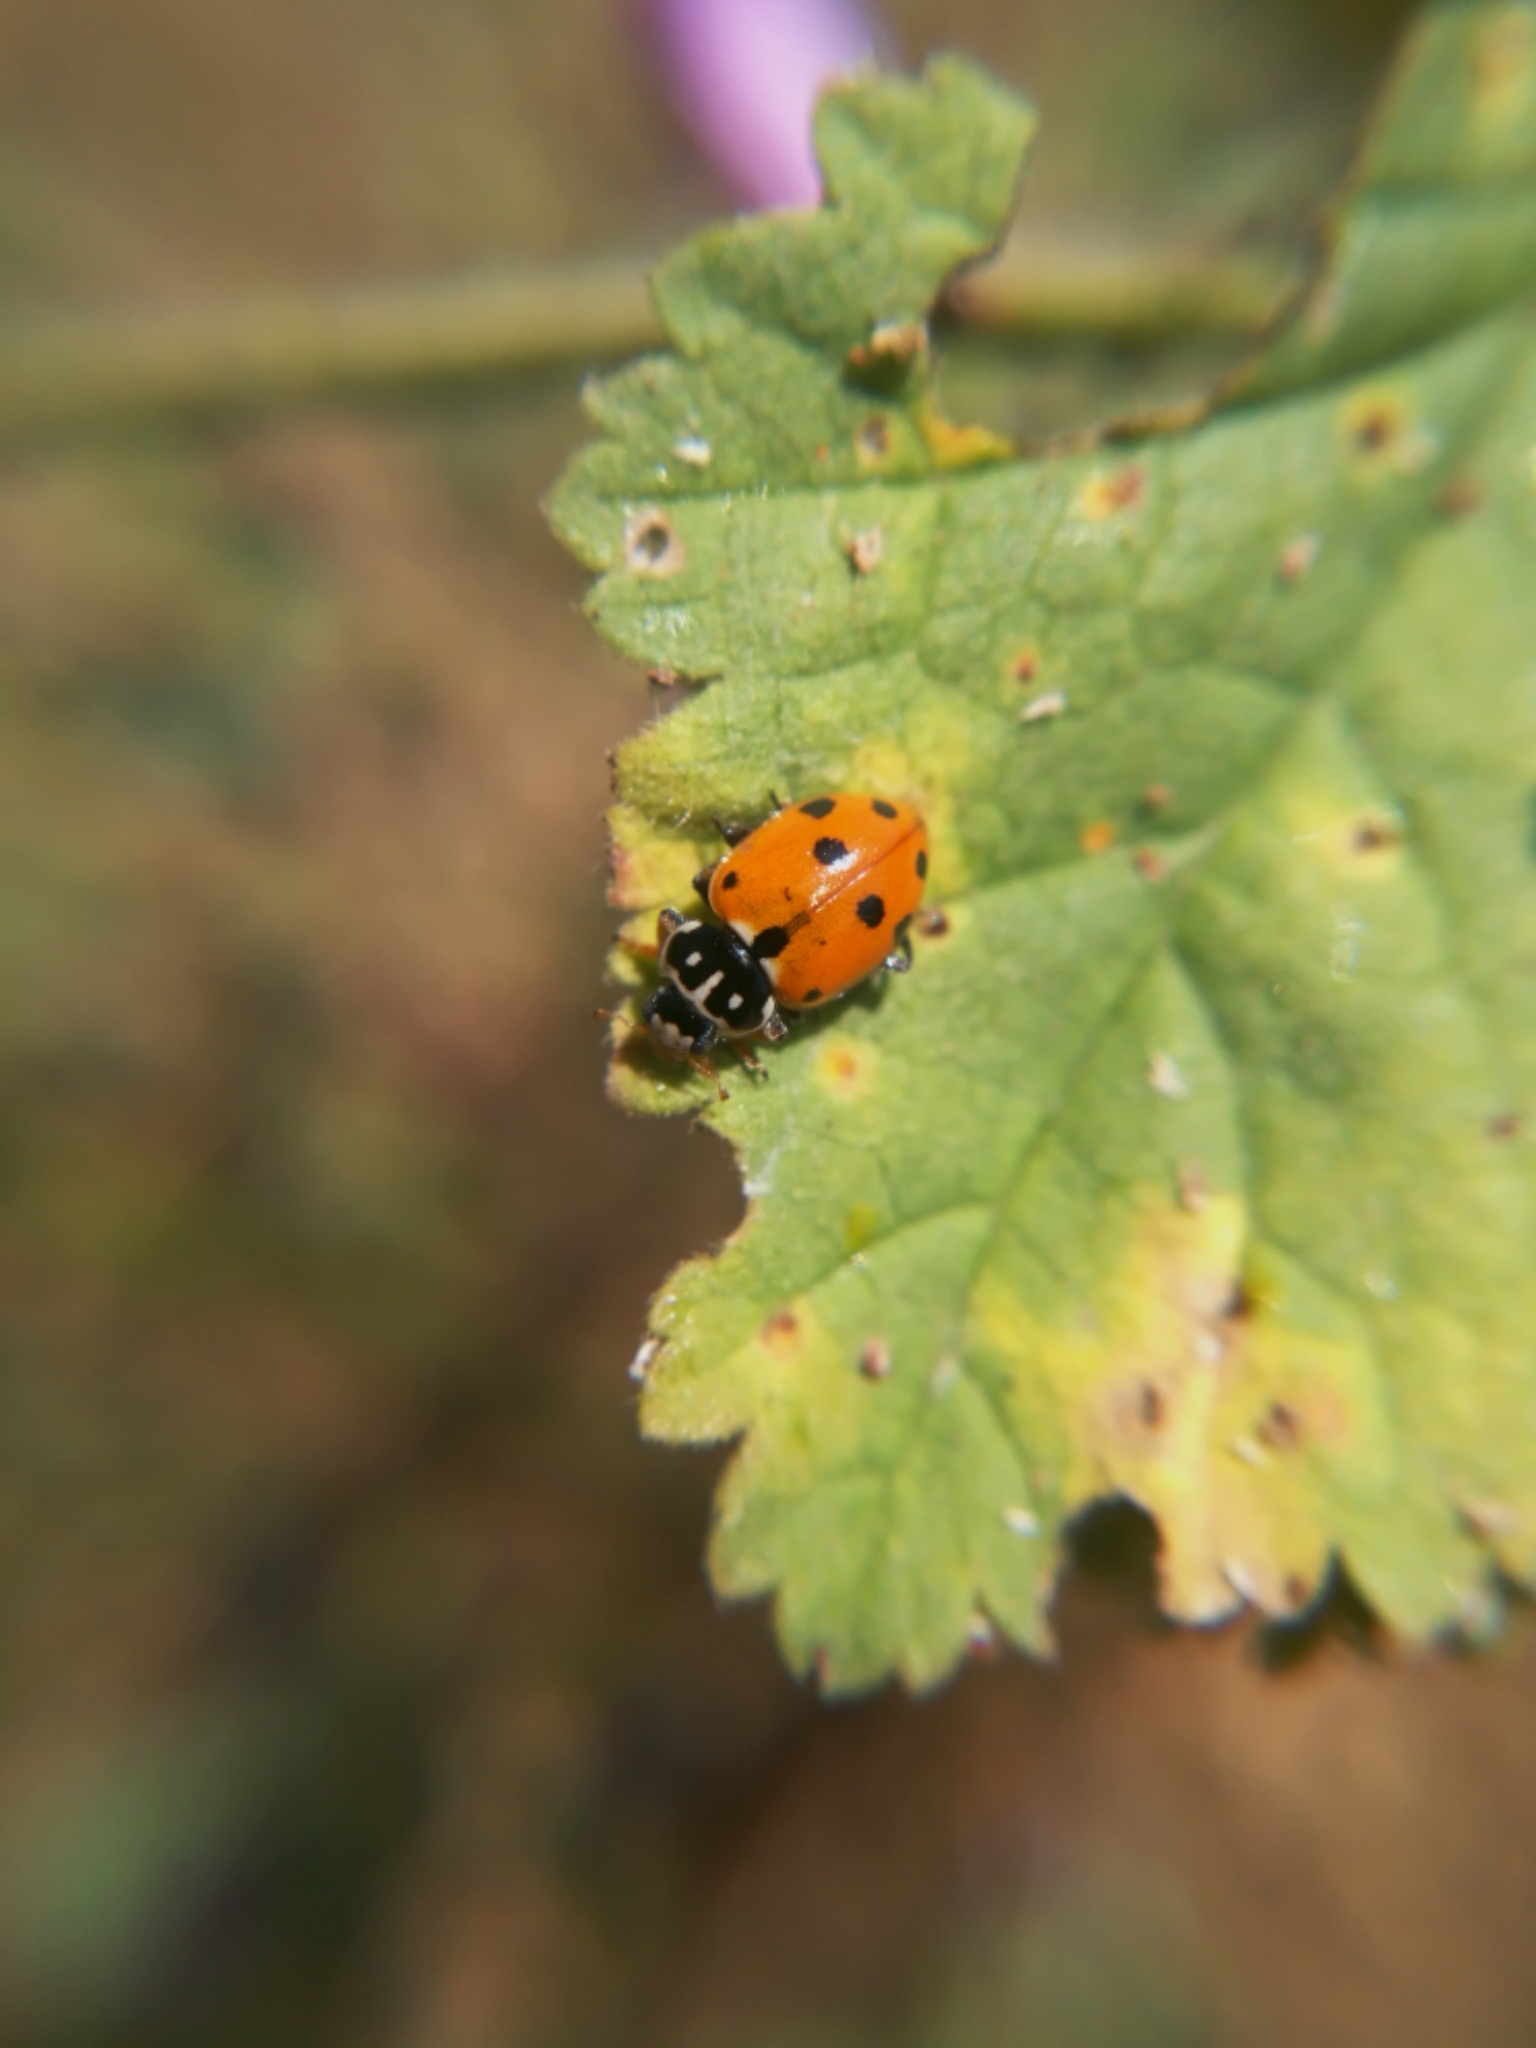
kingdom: Animalia
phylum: Arthropoda
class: Insecta
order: Coleoptera
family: Coccinellidae
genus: Hippodamia
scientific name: Hippodamia variegata
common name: Ladybird beetle
